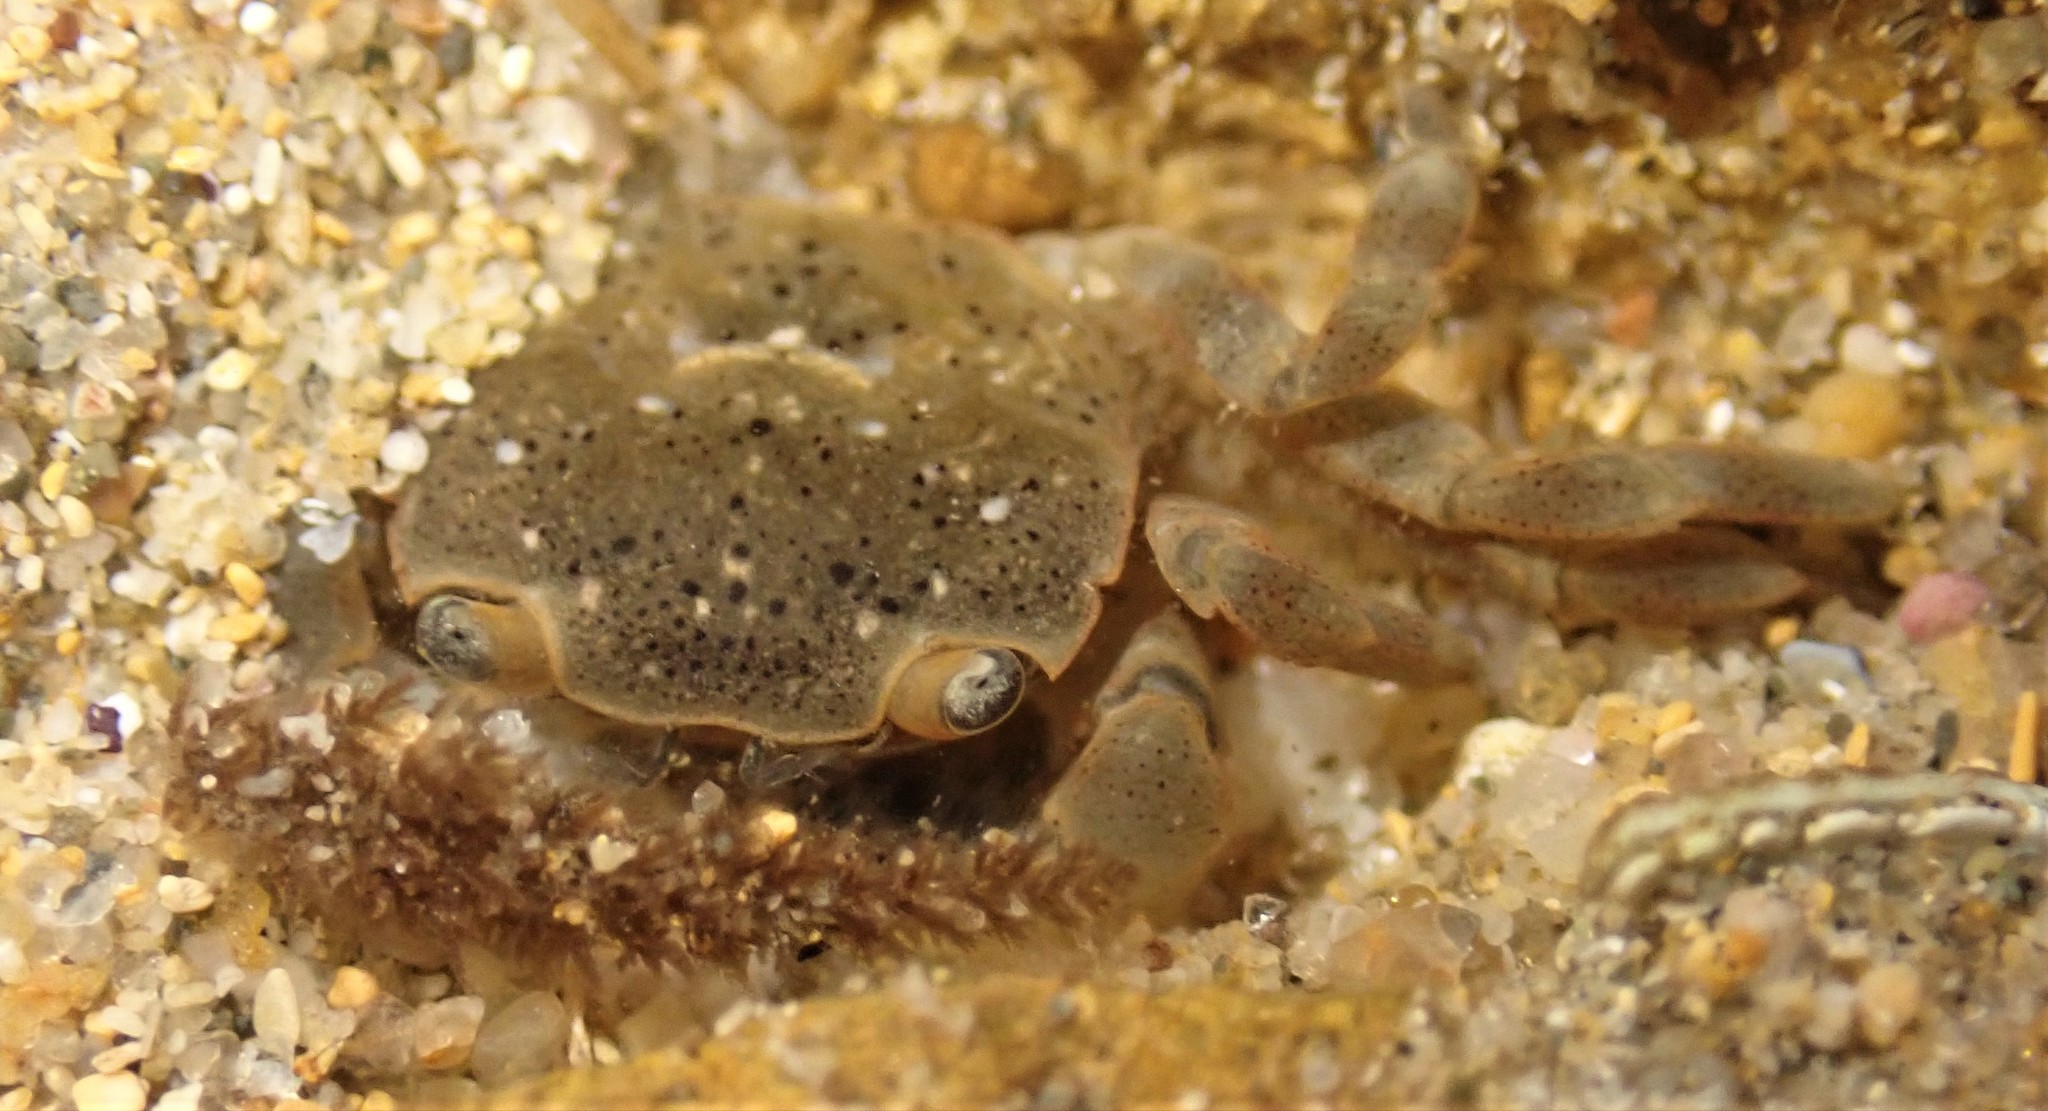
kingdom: Animalia
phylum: Arthropoda
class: Malacostraca
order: Decapoda
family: Varunidae
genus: Paragrapsus
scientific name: Paragrapsus quadridentatus
